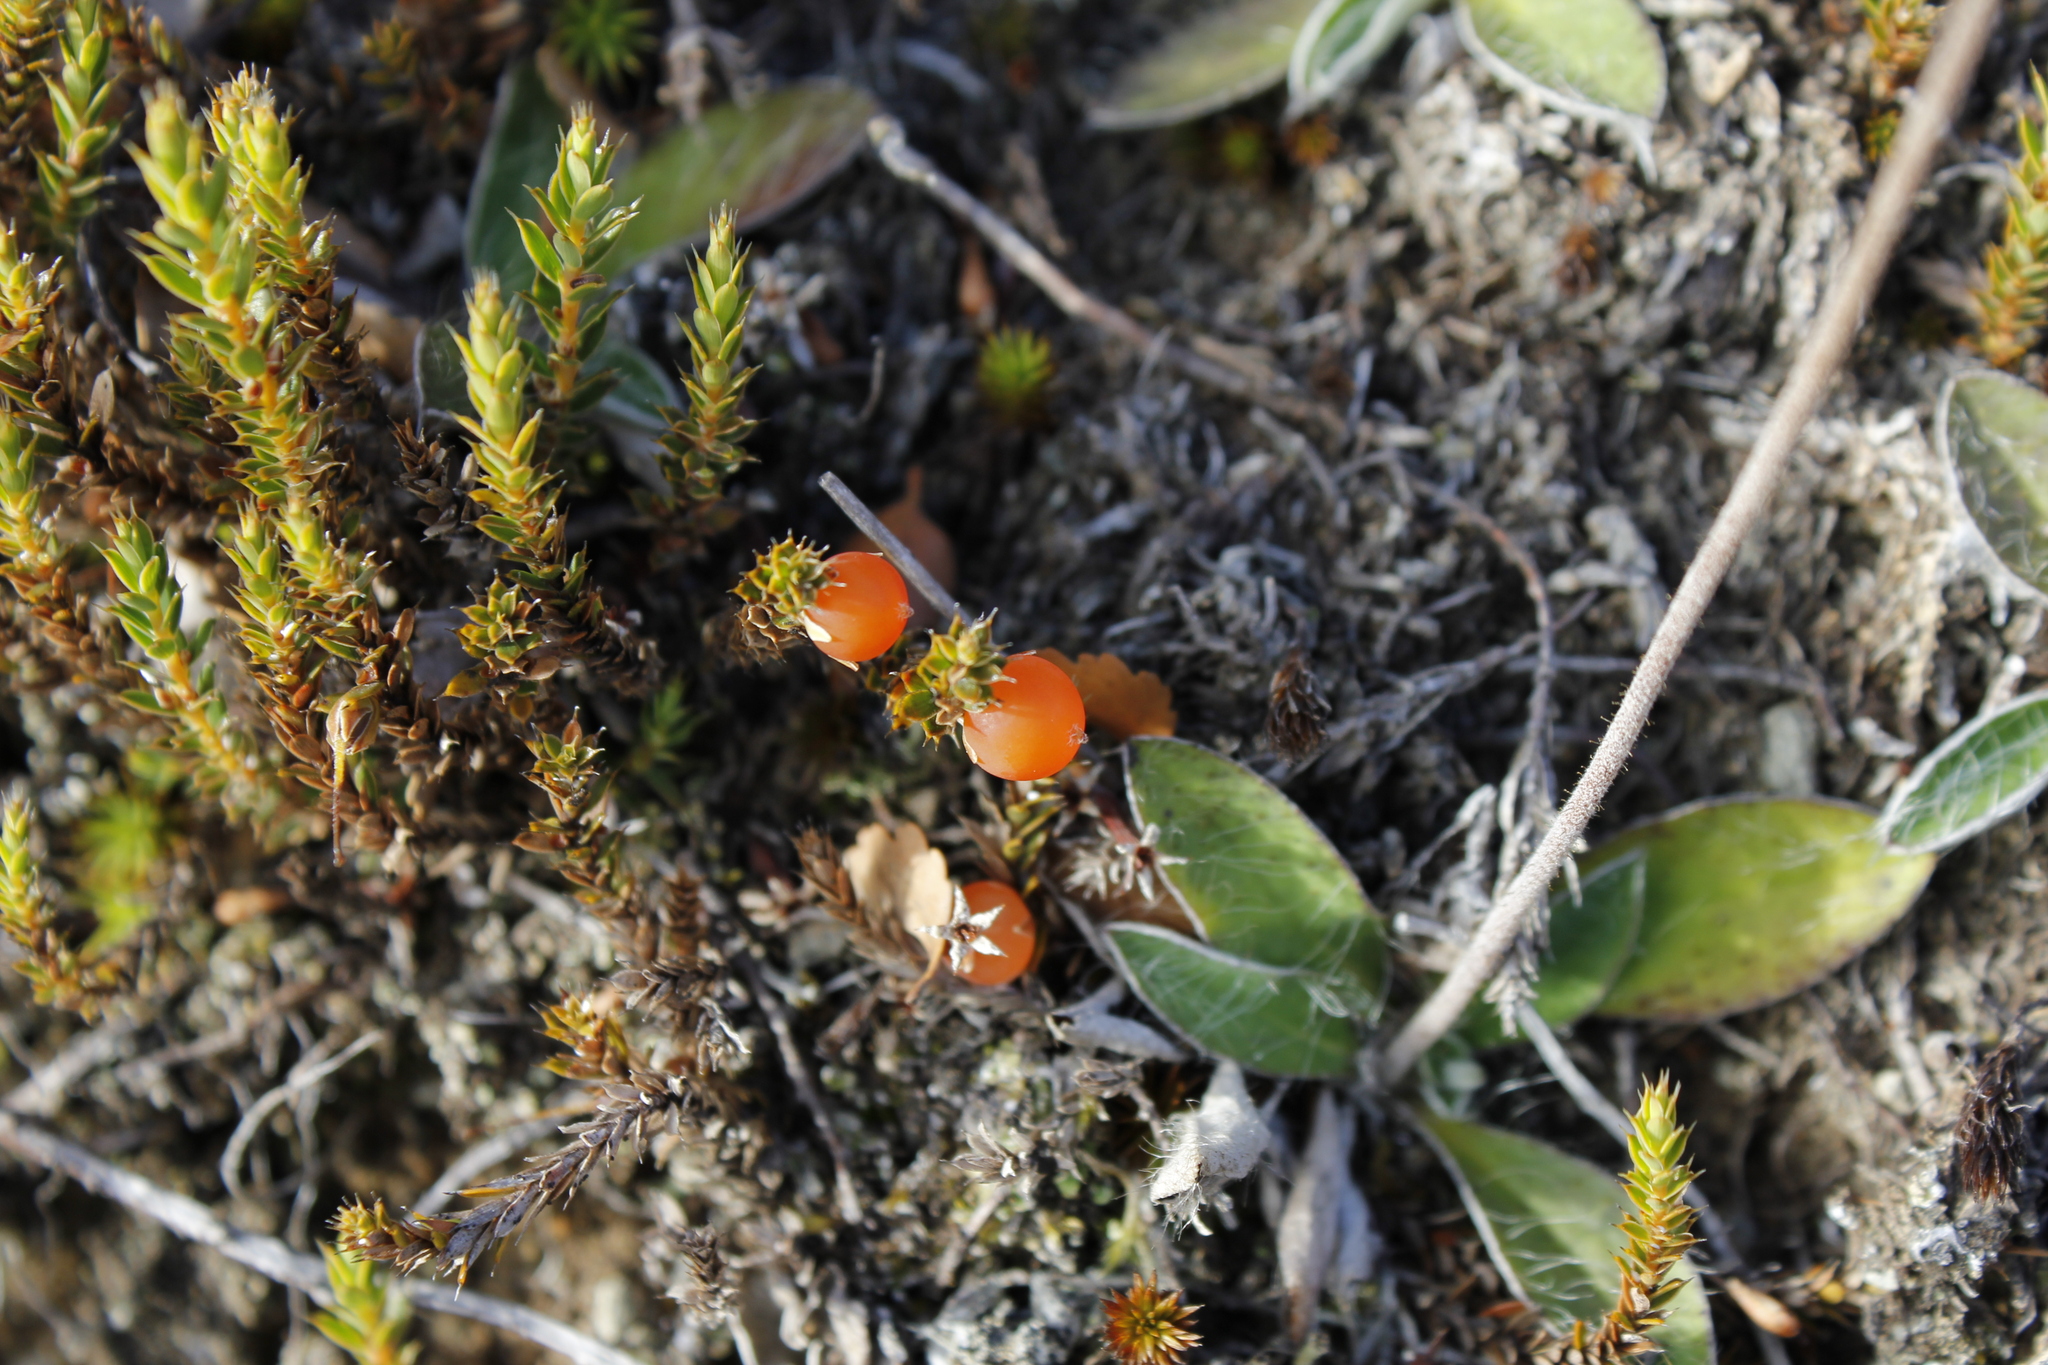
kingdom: Plantae
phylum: Tracheophyta
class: Magnoliopsida
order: Ericales
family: Ericaceae
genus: Styphelia
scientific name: Styphelia nesophila
